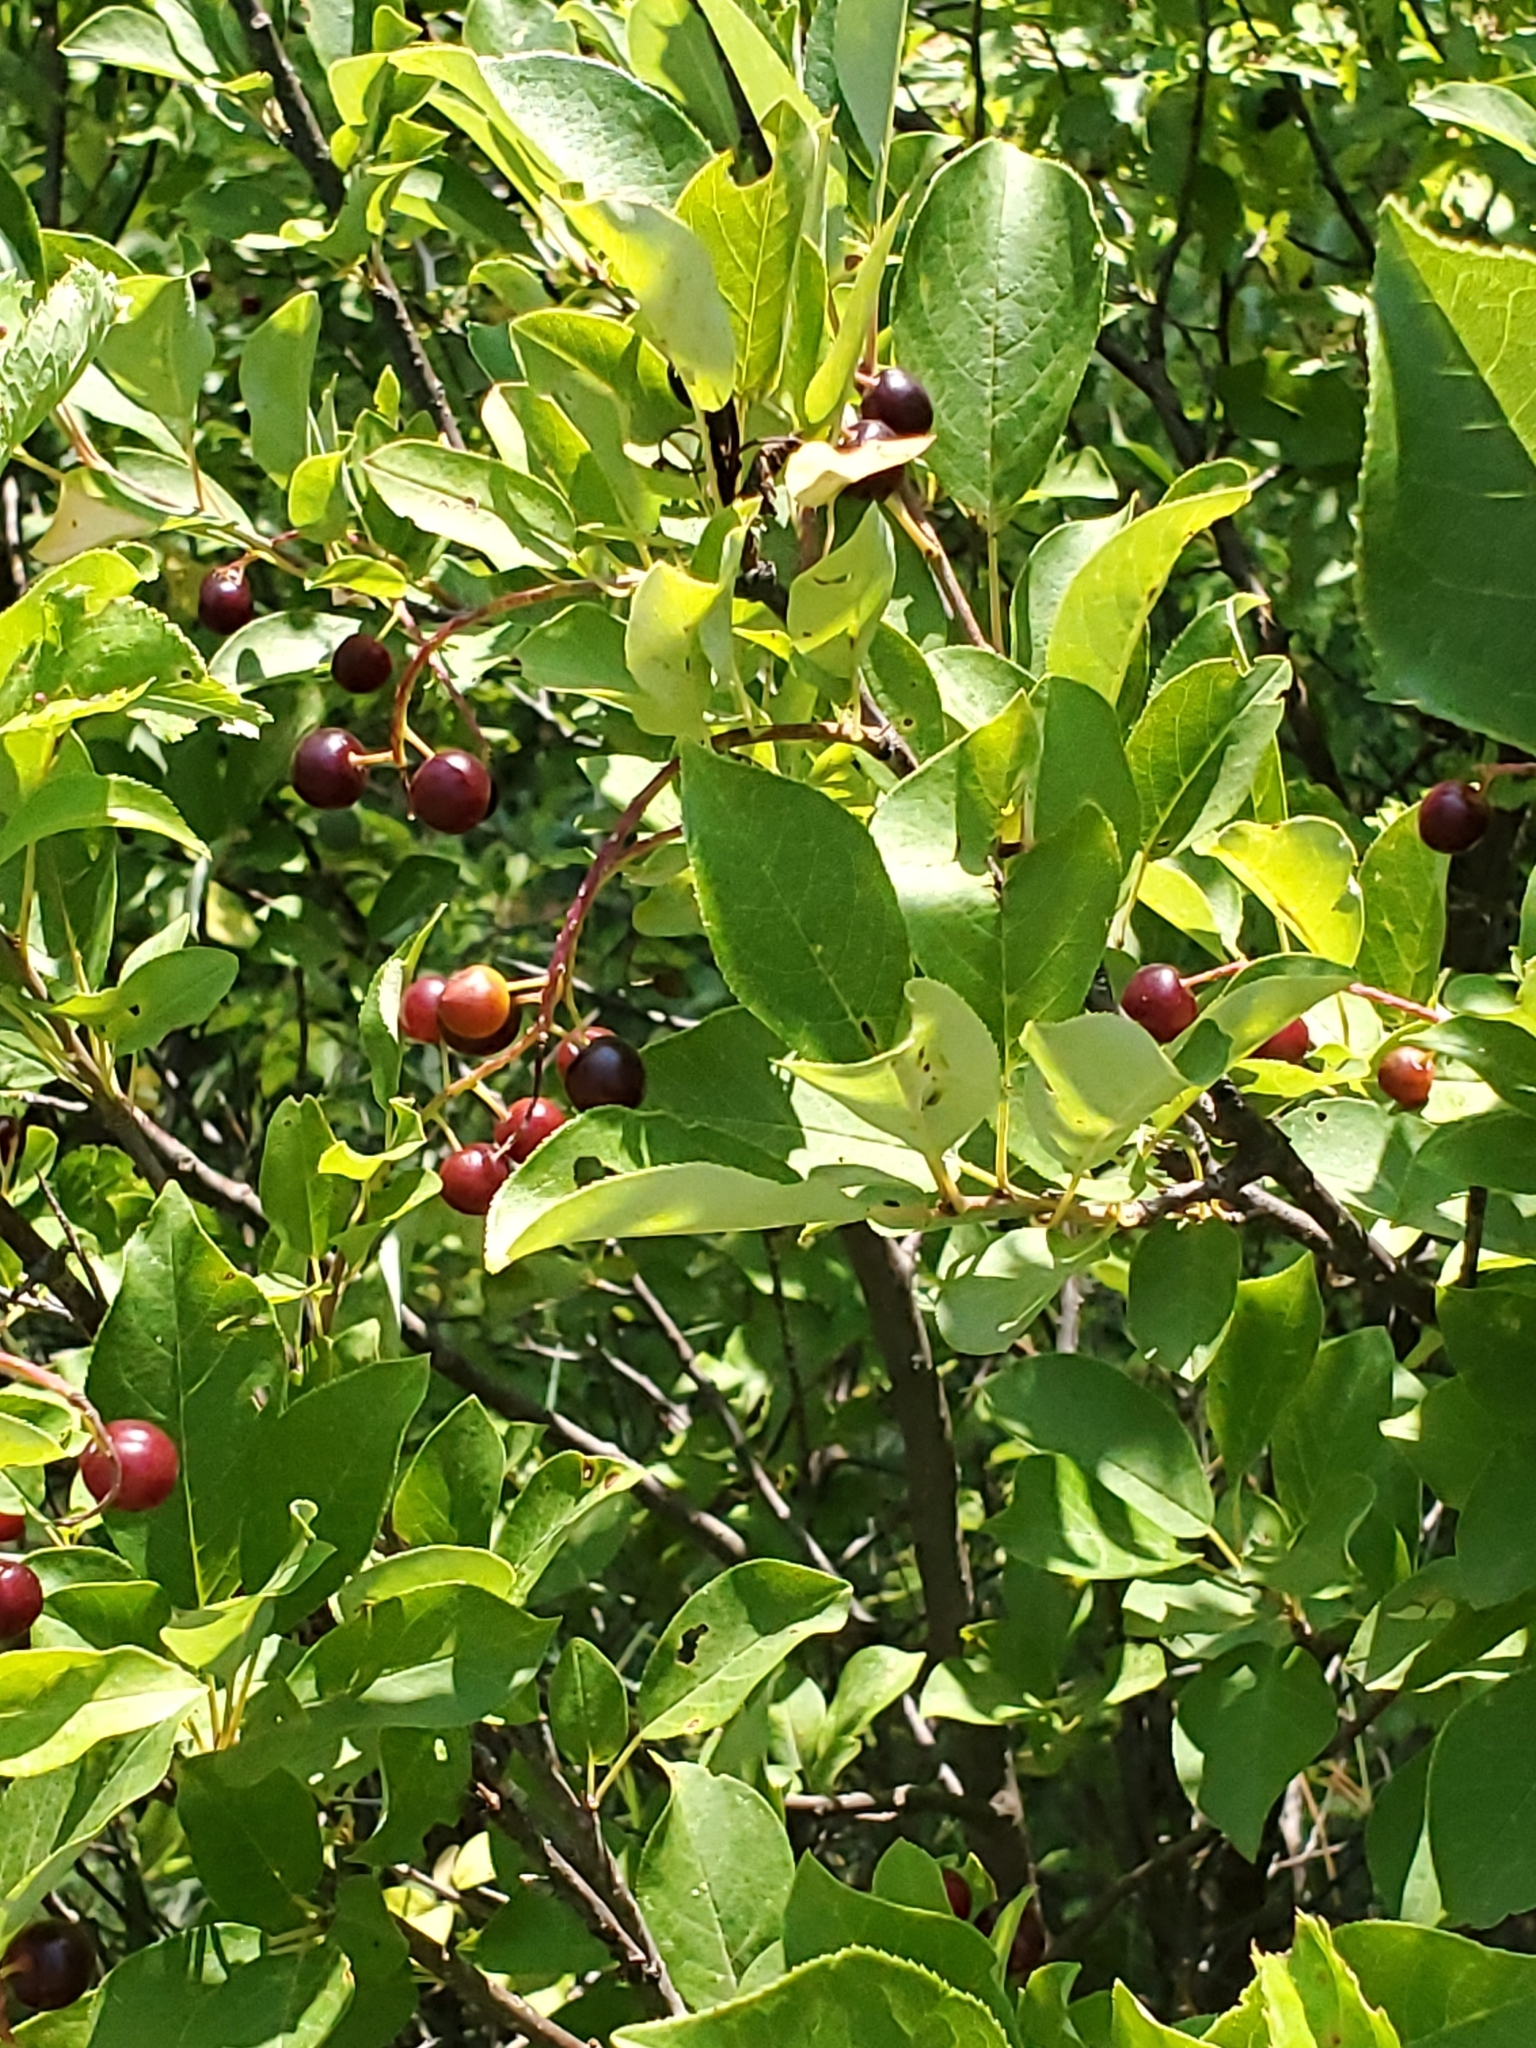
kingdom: Plantae
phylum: Tracheophyta
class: Magnoliopsida
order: Rosales
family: Rosaceae
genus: Prunus
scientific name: Prunus virginiana
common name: Chokecherry
